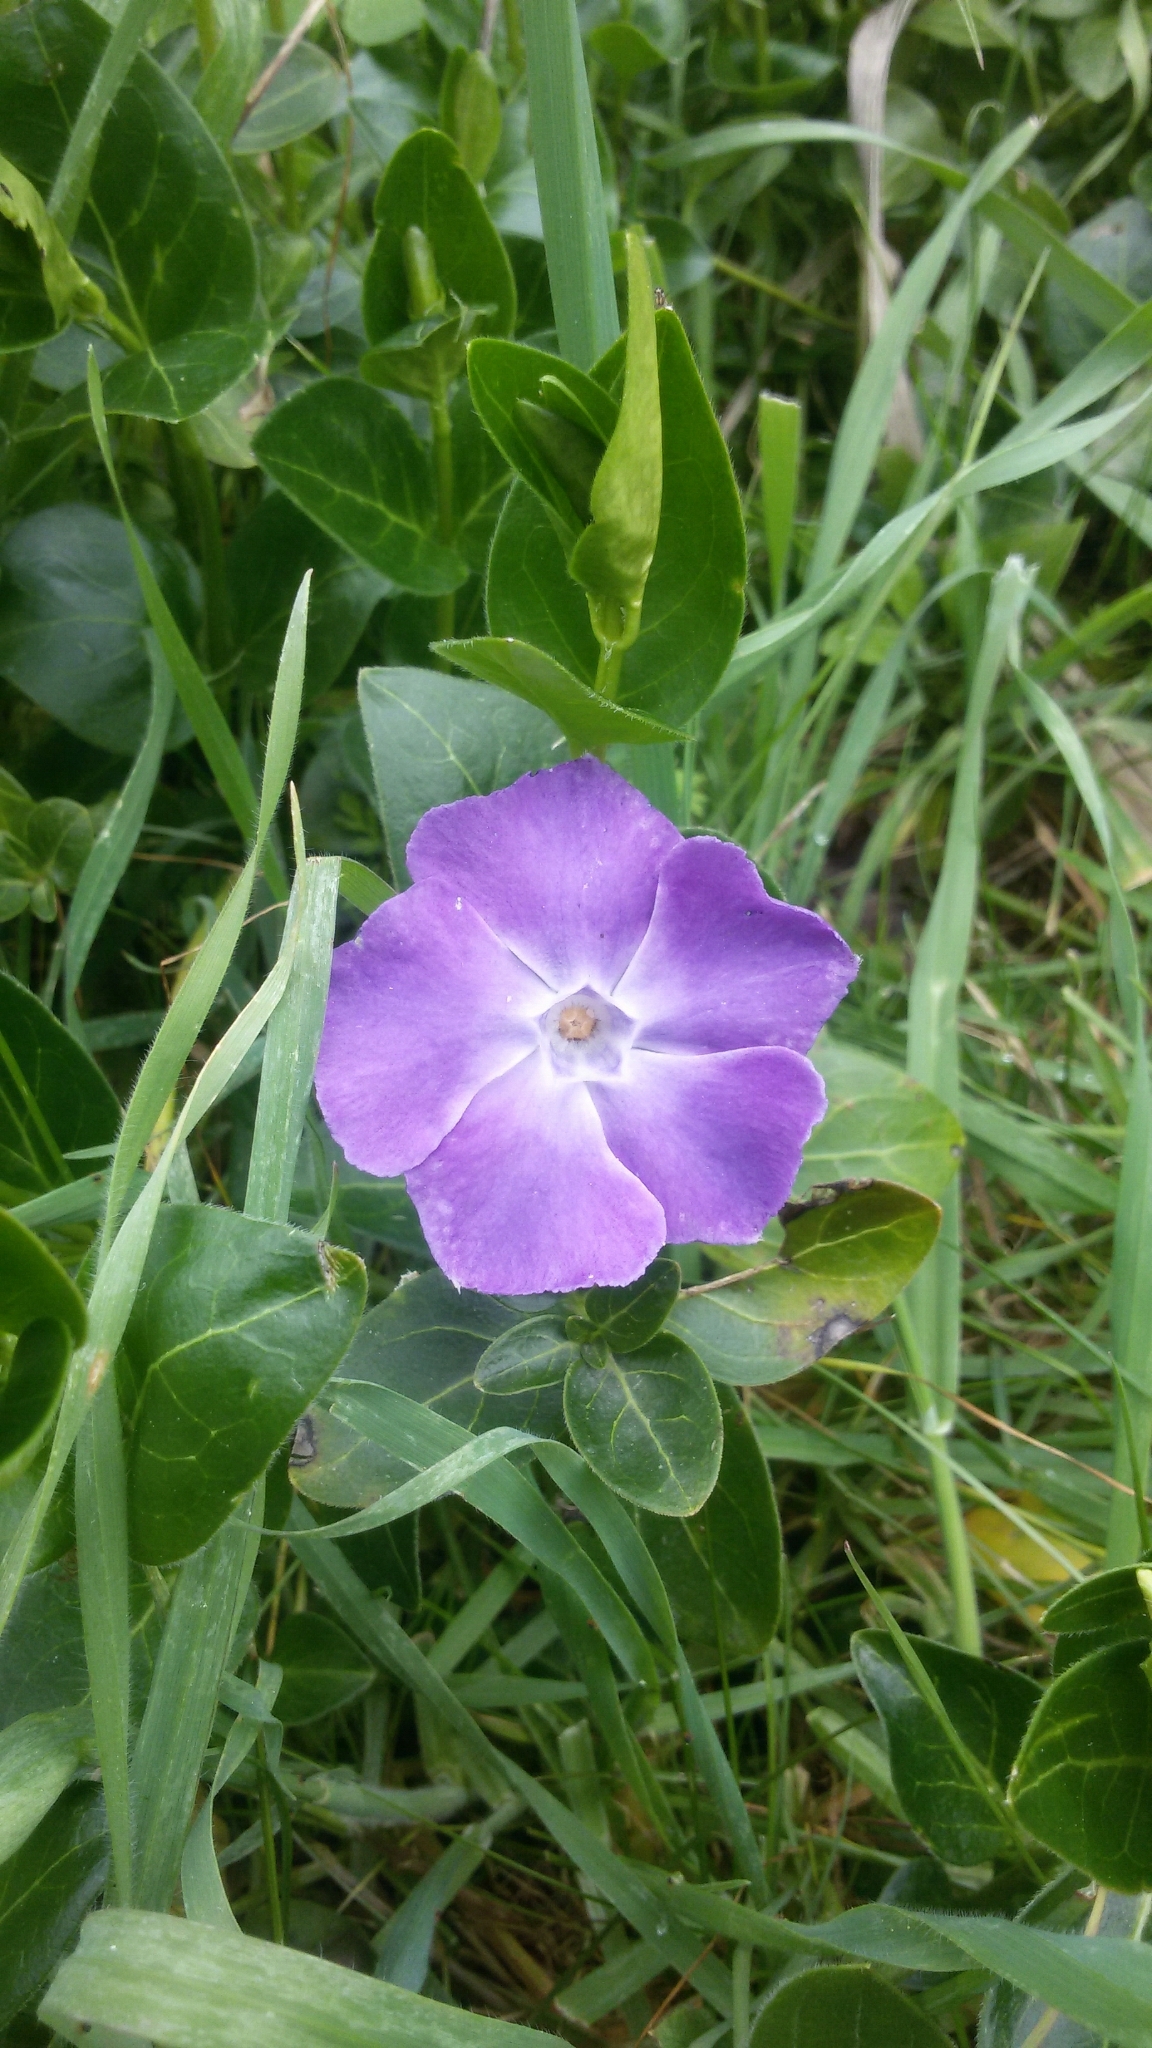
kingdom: Plantae
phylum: Tracheophyta
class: Magnoliopsida
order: Gentianales
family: Apocynaceae
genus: Vinca
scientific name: Vinca major
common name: Greater periwinkle
